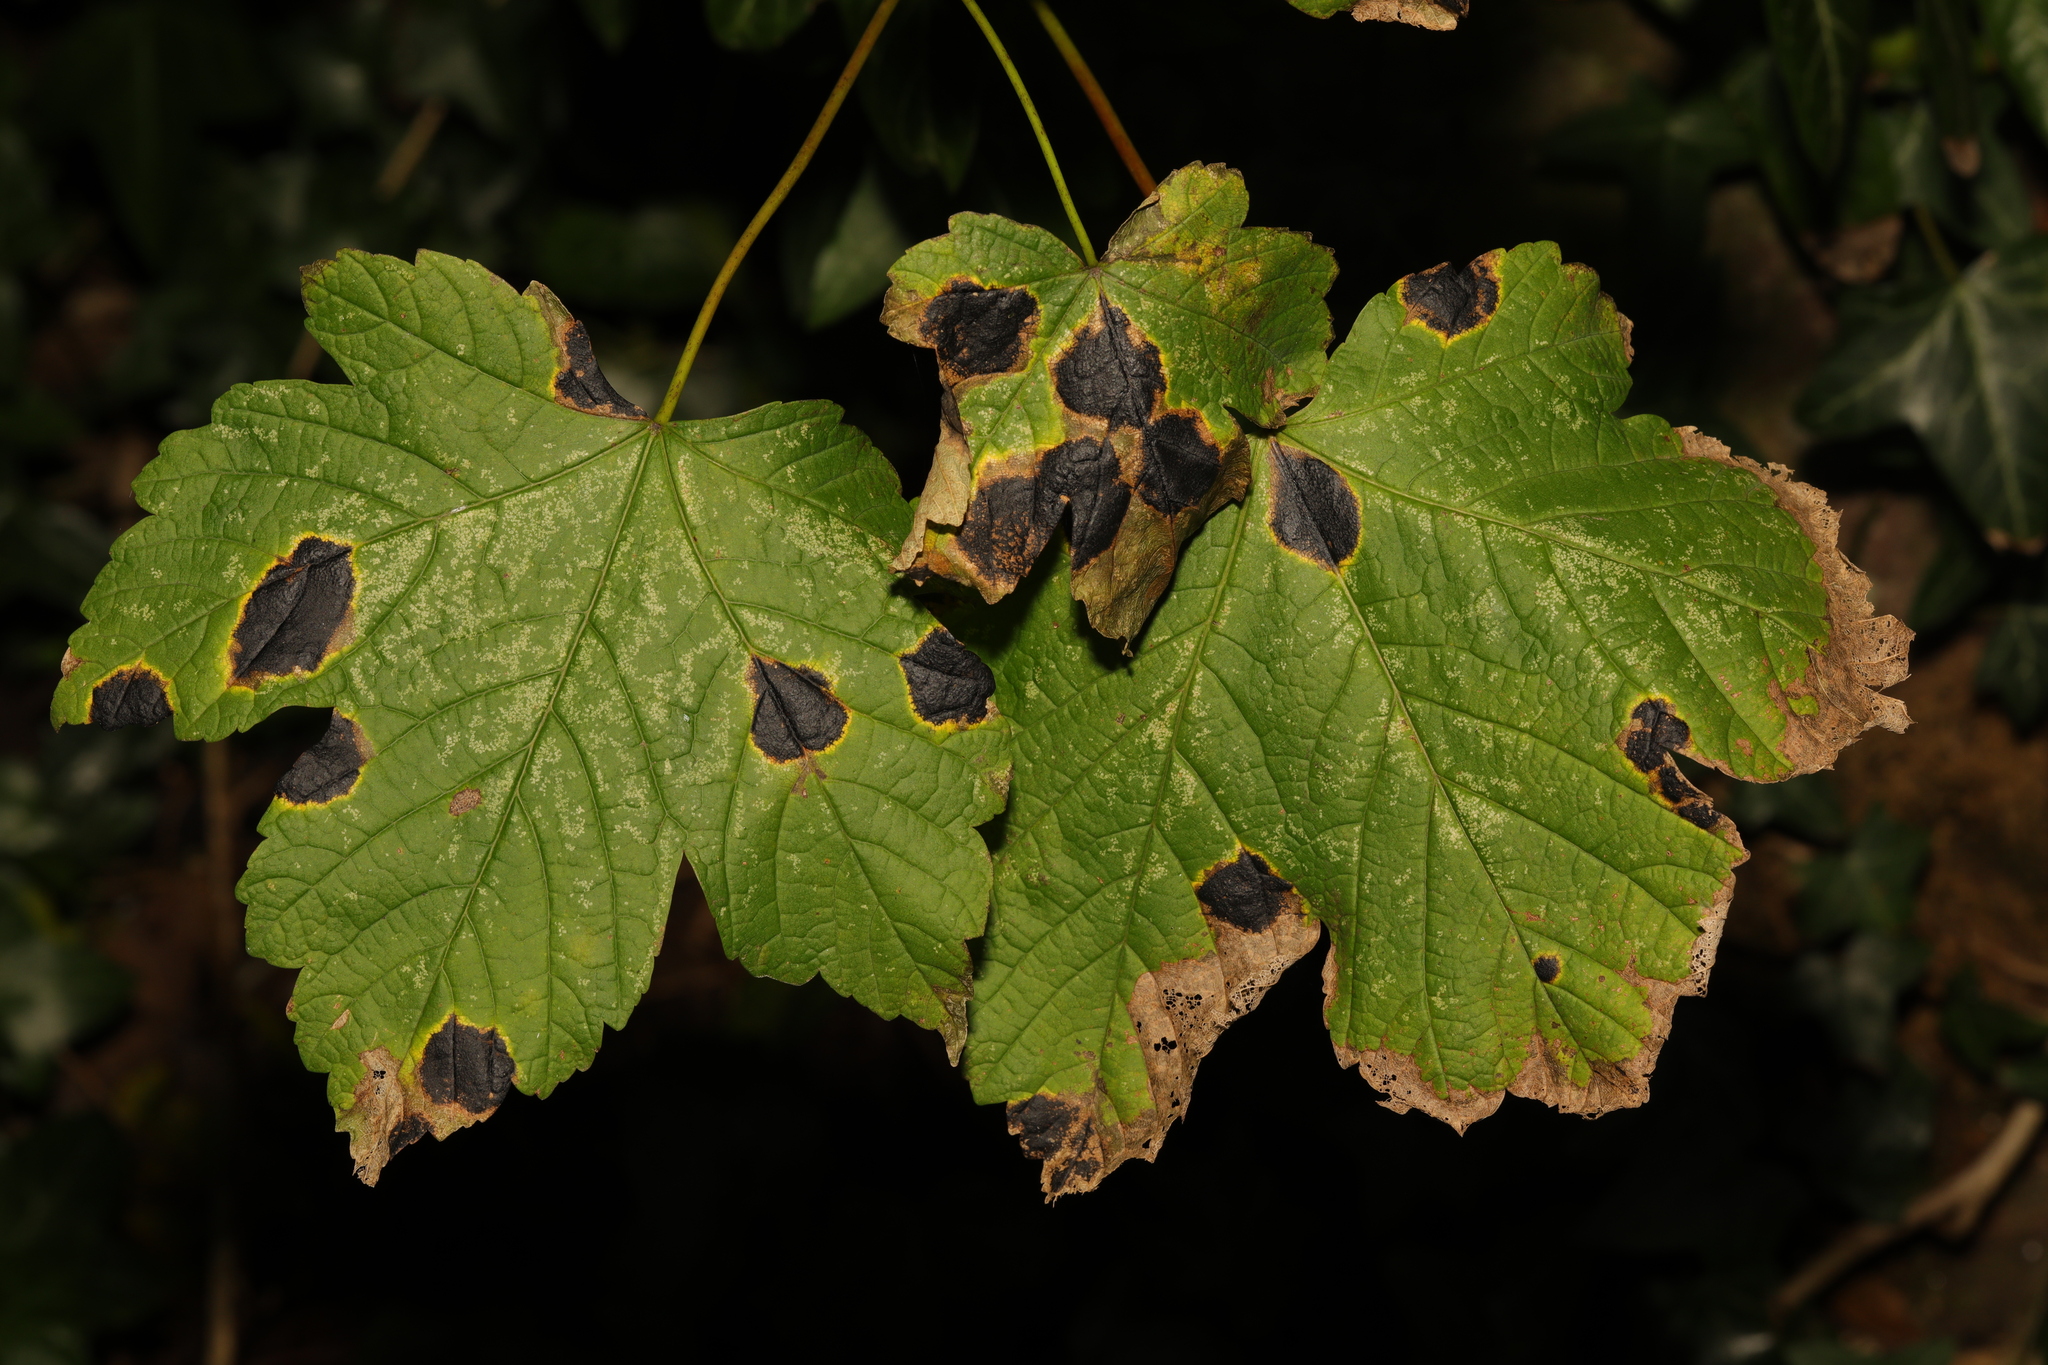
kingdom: Plantae
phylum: Tracheophyta
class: Magnoliopsida
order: Sapindales
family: Sapindaceae
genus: Acer
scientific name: Acer pseudoplatanus
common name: Sycamore
